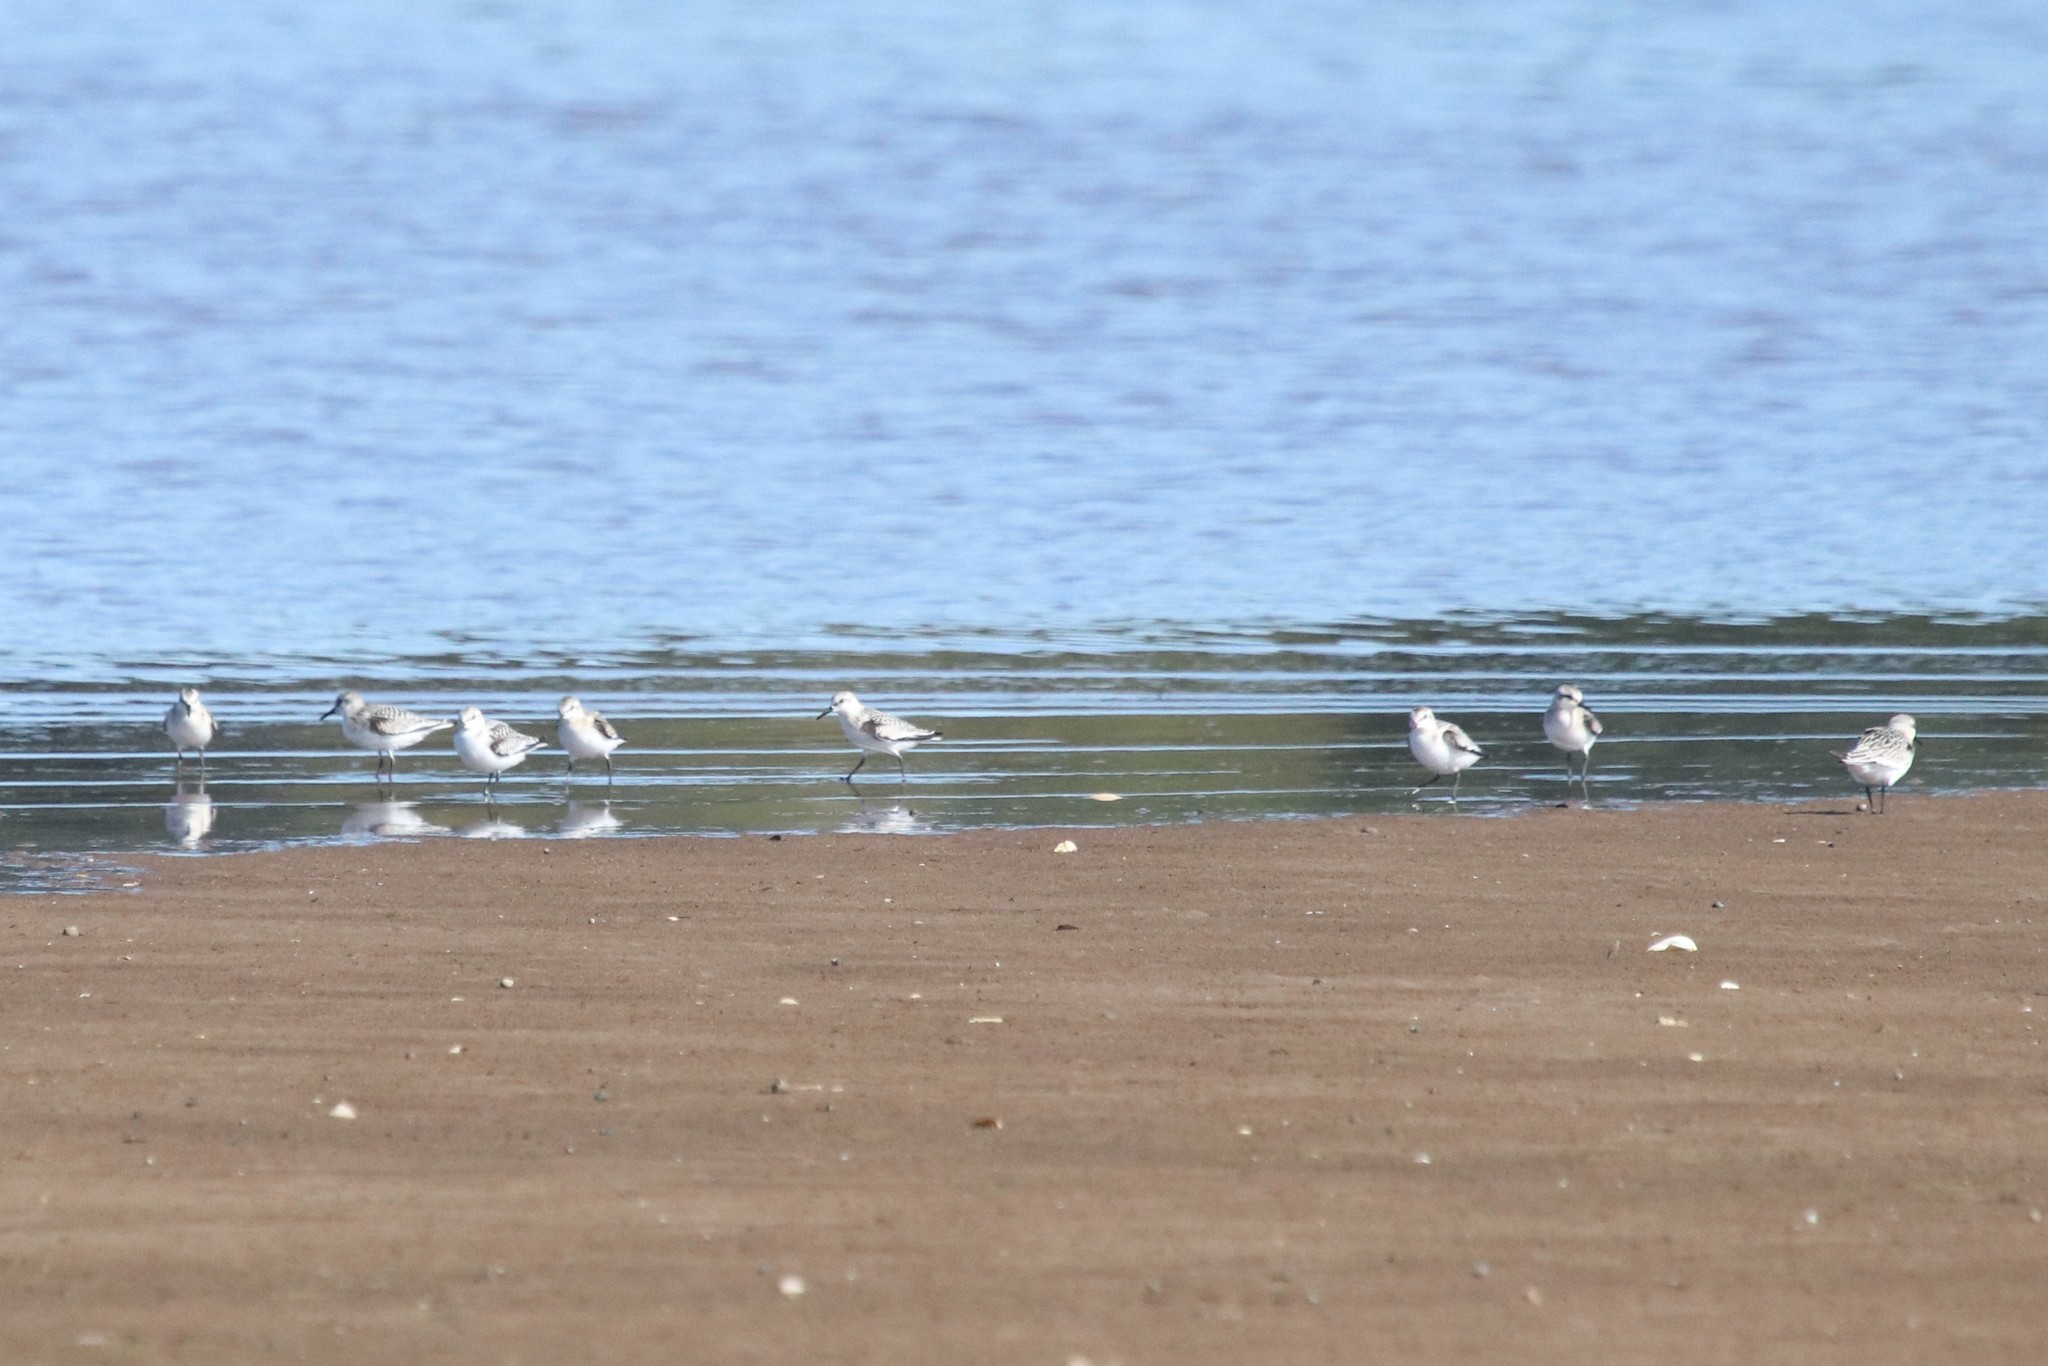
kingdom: Animalia
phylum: Chordata
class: Aves
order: Charadriiformes
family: Scolopacidae
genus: Calidris
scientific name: Calidris alba
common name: Sanderling
